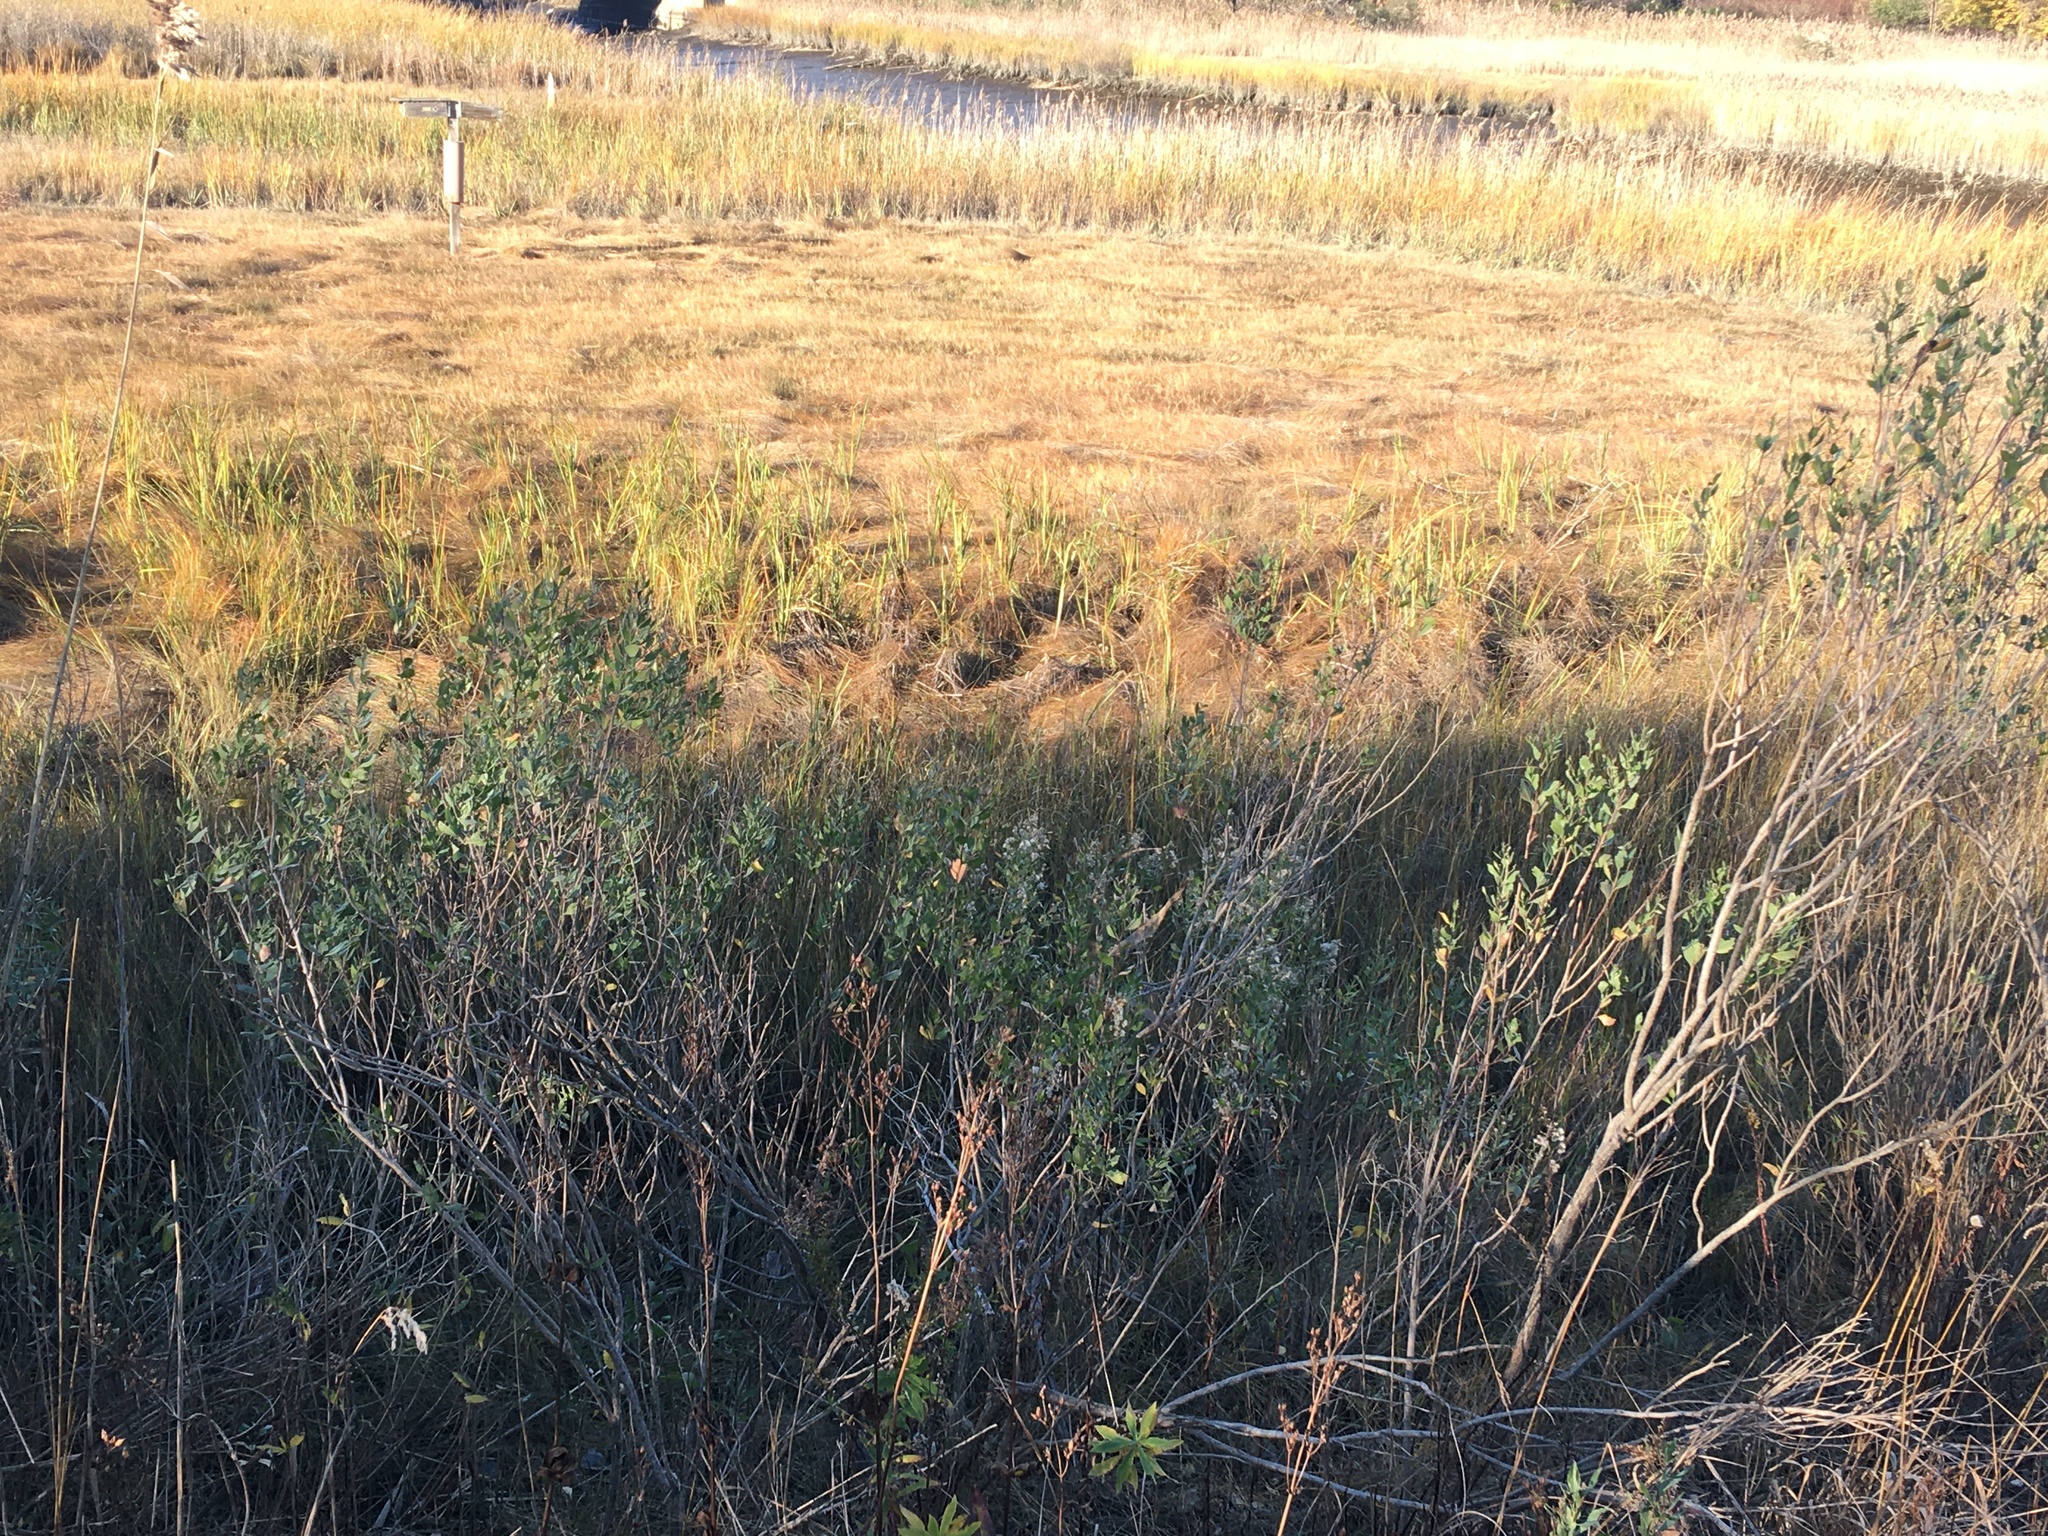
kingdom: Plantae
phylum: Tracheophyta
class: Magnoliopsida
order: Asterales
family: Asteraceae
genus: Baccharis
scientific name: Baccharis halimifolia
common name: Eastern baccharis
